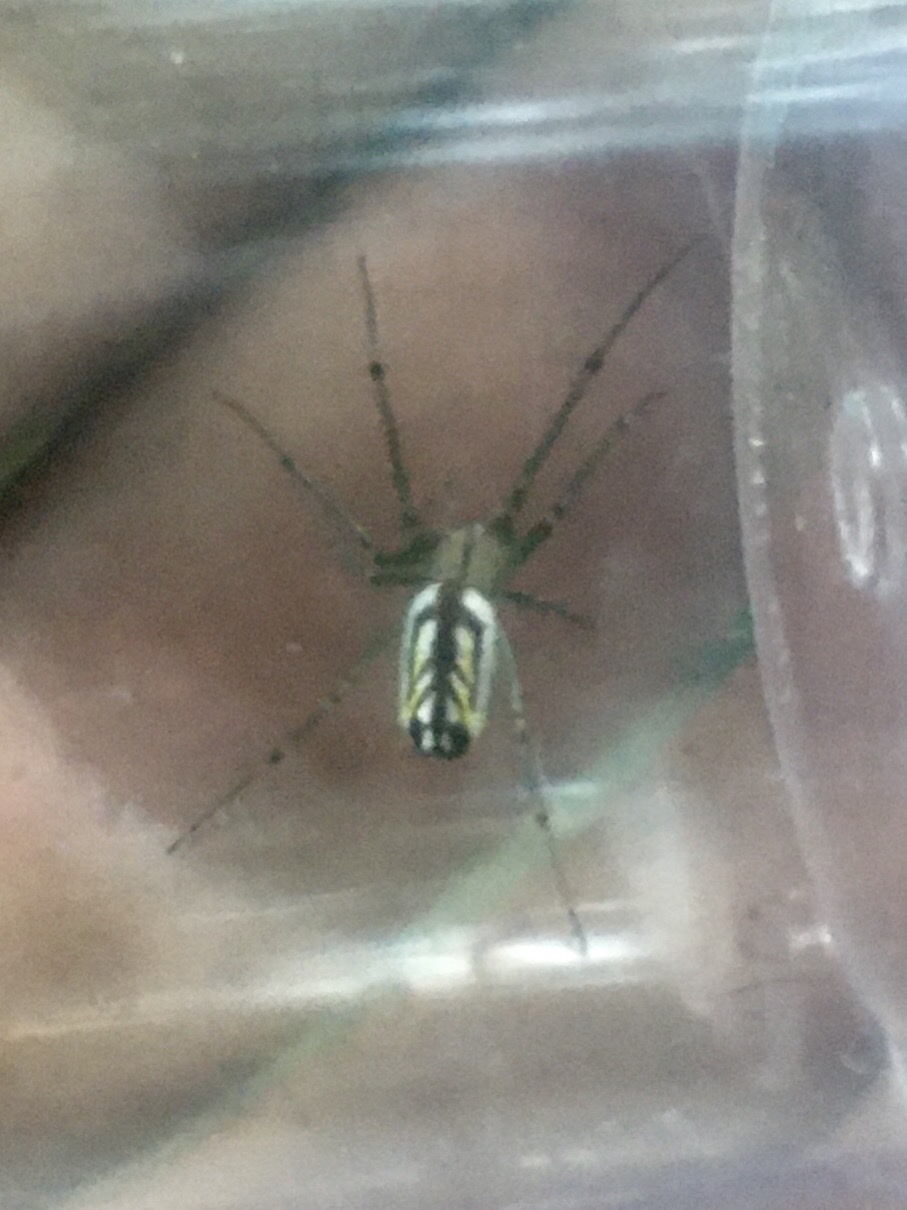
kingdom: Animalia
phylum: Arthropoda
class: Arachnida
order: Araneae
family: Tetragnathidae
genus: Leucauge
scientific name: Leucauge venusta
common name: Longjawed orb weavers
